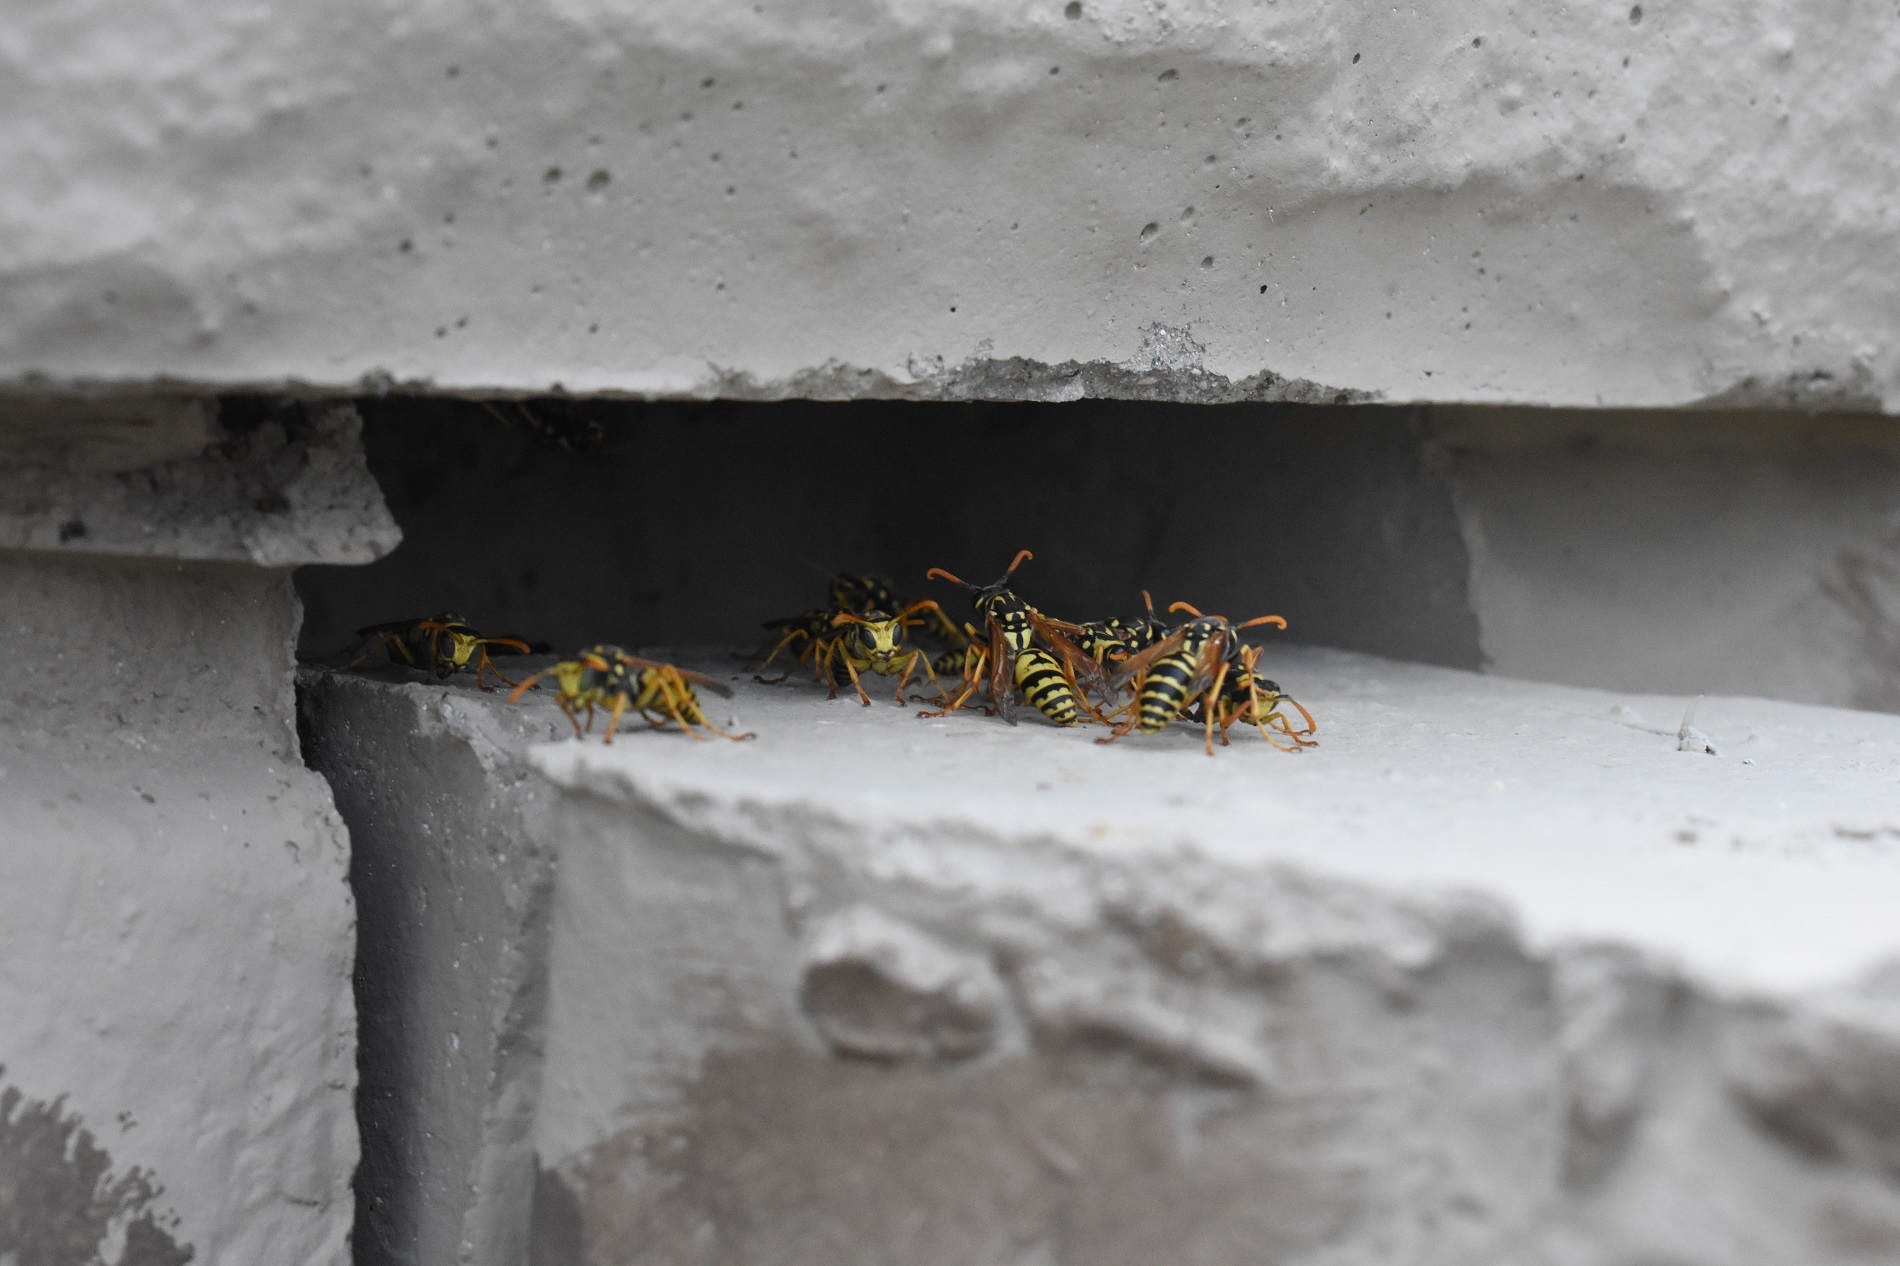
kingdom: Animalia
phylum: Arthropoda
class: Insecta
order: Hymenoptera
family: Eumenidae
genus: Polistes
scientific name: Polistes dominula
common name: Paper wasp
